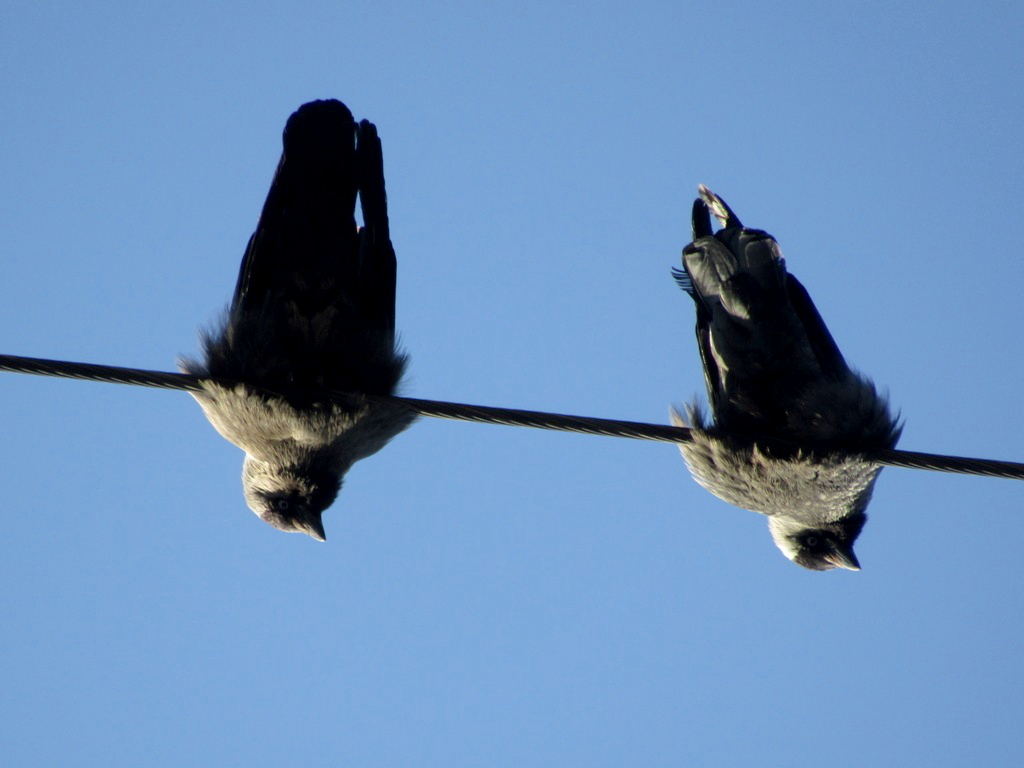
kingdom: Animalia
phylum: Chordata
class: Aves
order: Passeriformes
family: Corvidae
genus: Coloeus
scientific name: Coloeus monedula
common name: Western jackdaw
